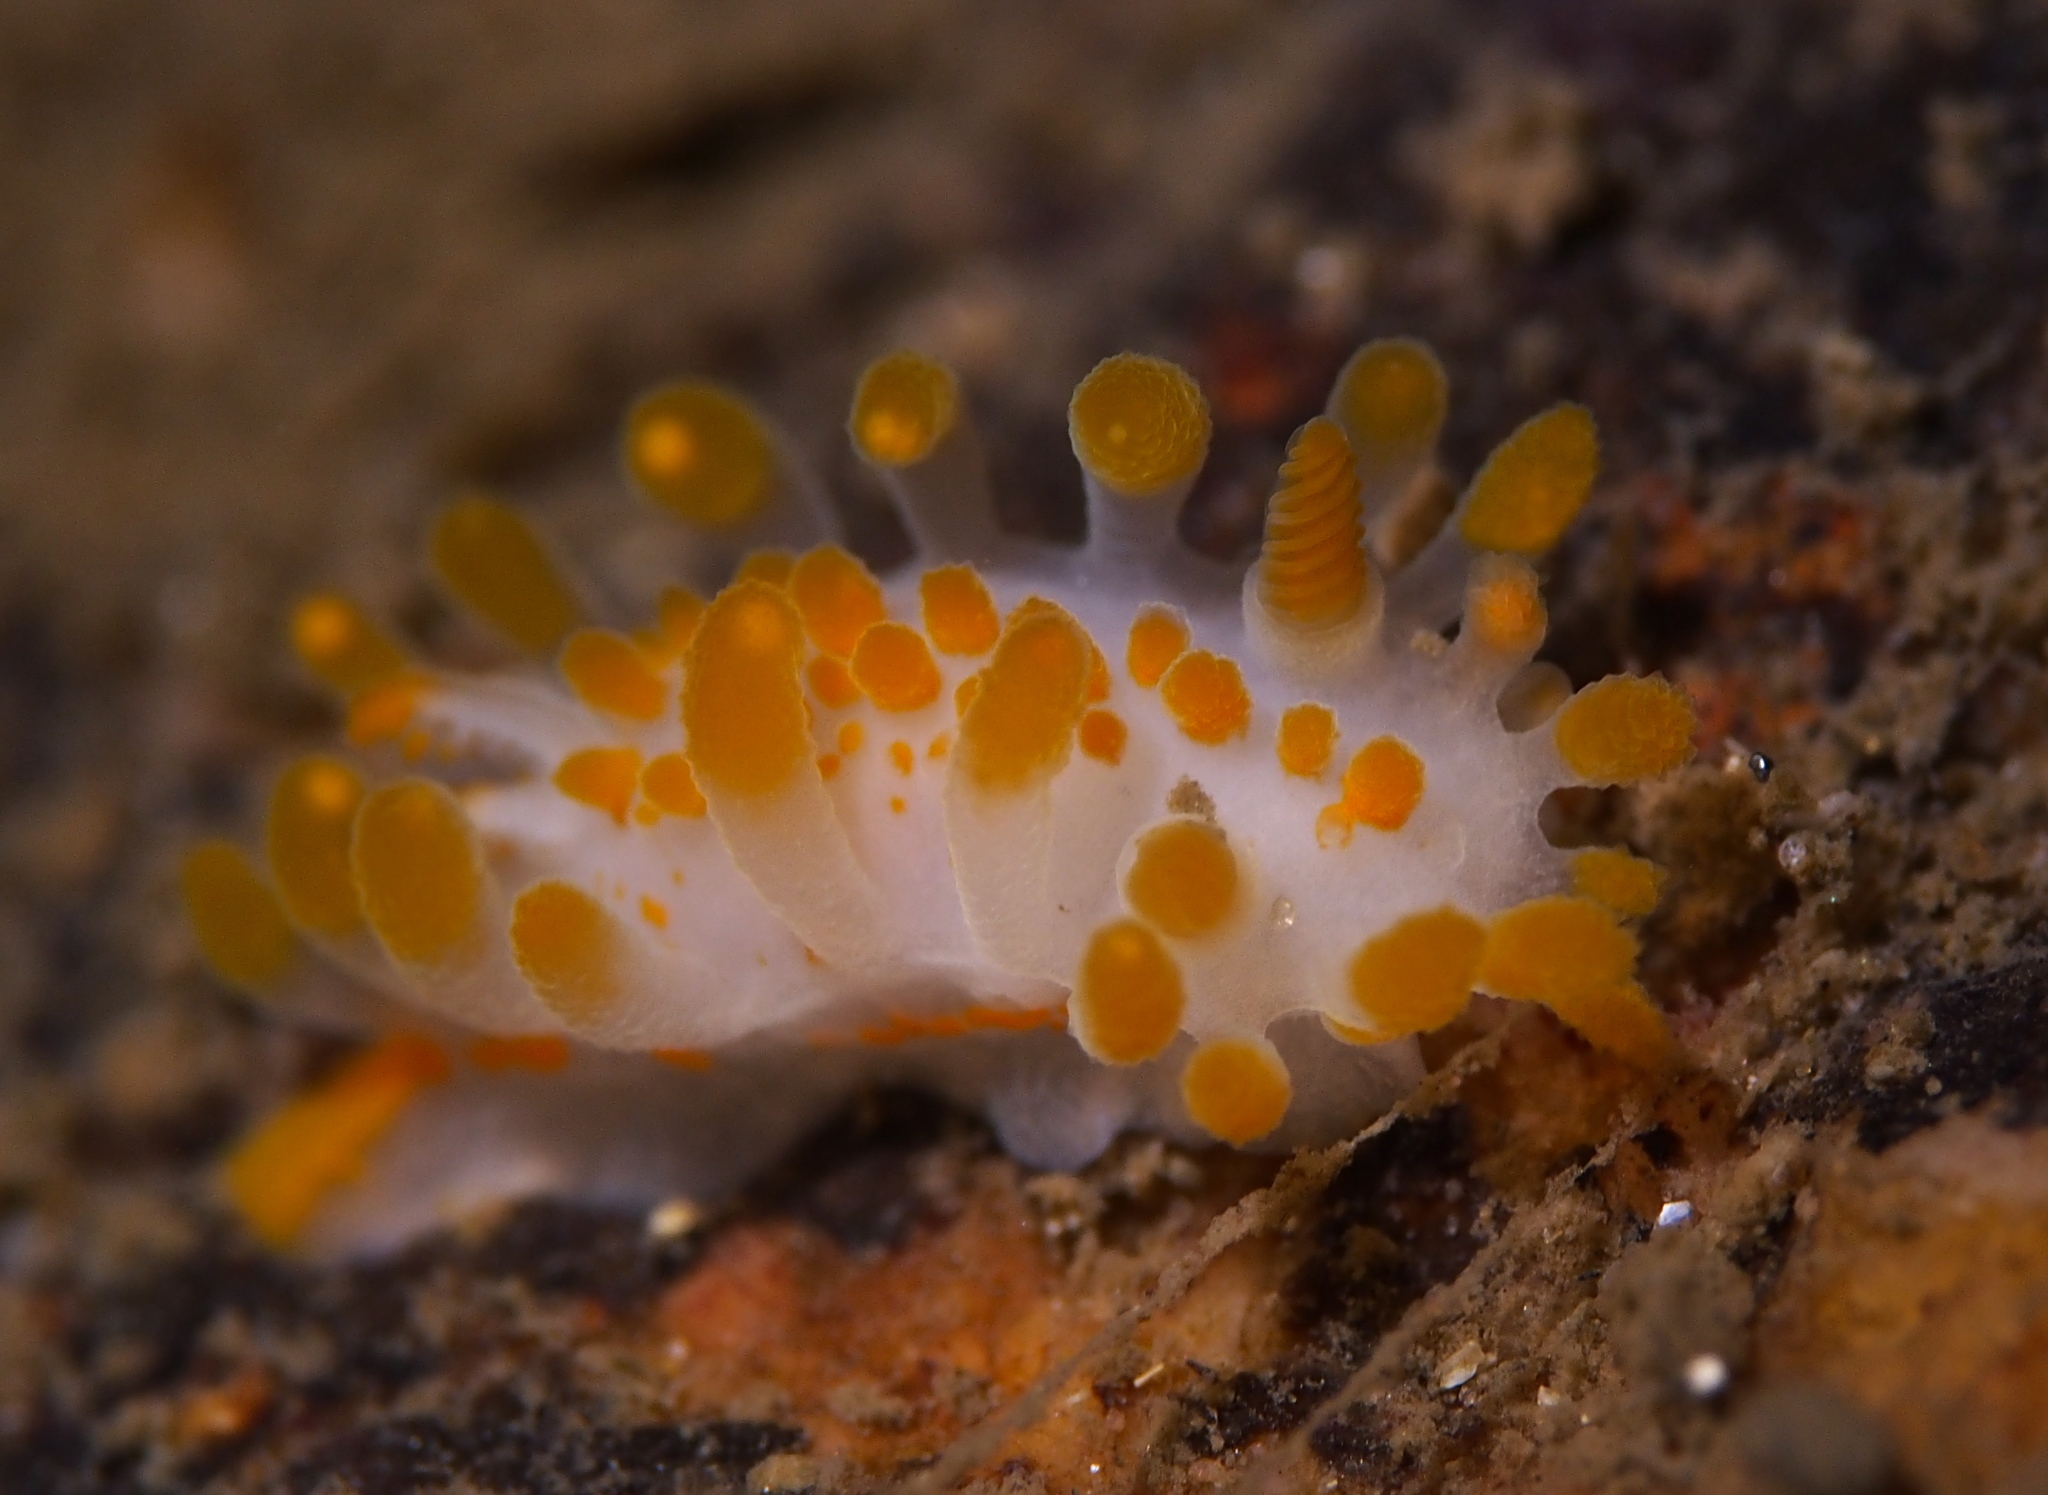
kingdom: Animalia
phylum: Mollusca
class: Gastropoda
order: Nudibranchia
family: Polyceridae
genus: Limacia
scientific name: Limacia clavigera
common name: Orange-clubbed sea slug
